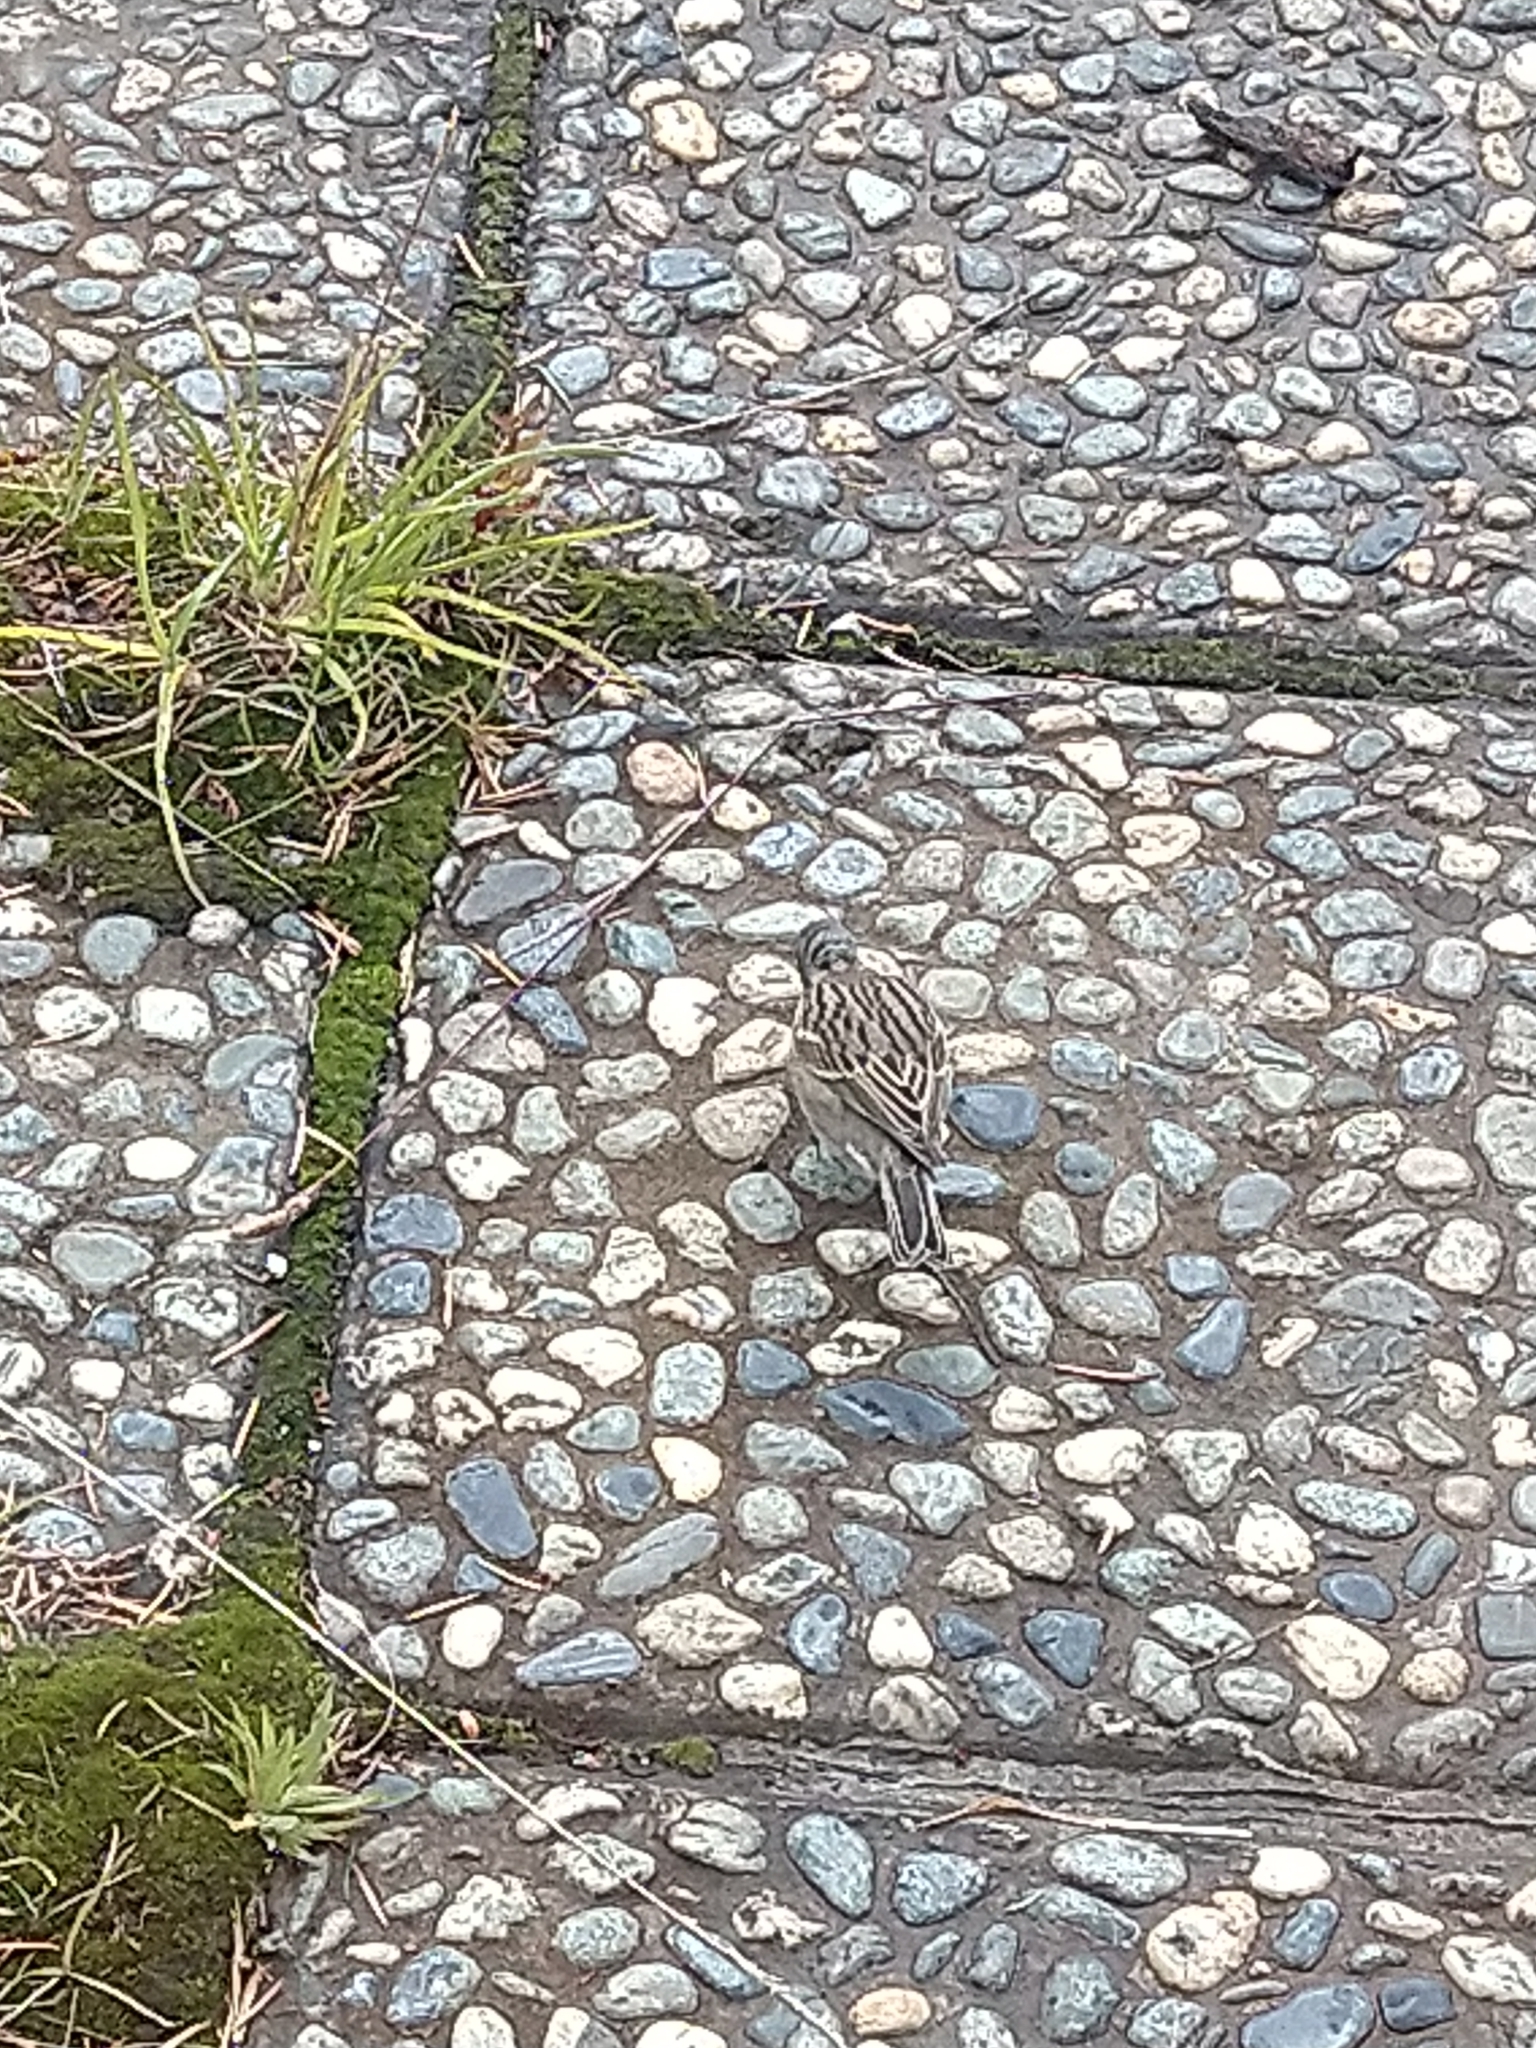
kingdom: Animalia
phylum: Chordata
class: Aves
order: Passeriformes
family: Passerellidae
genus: Zonotrichia
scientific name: Zonotrichia capensis
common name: Rufous-collared sparrow
